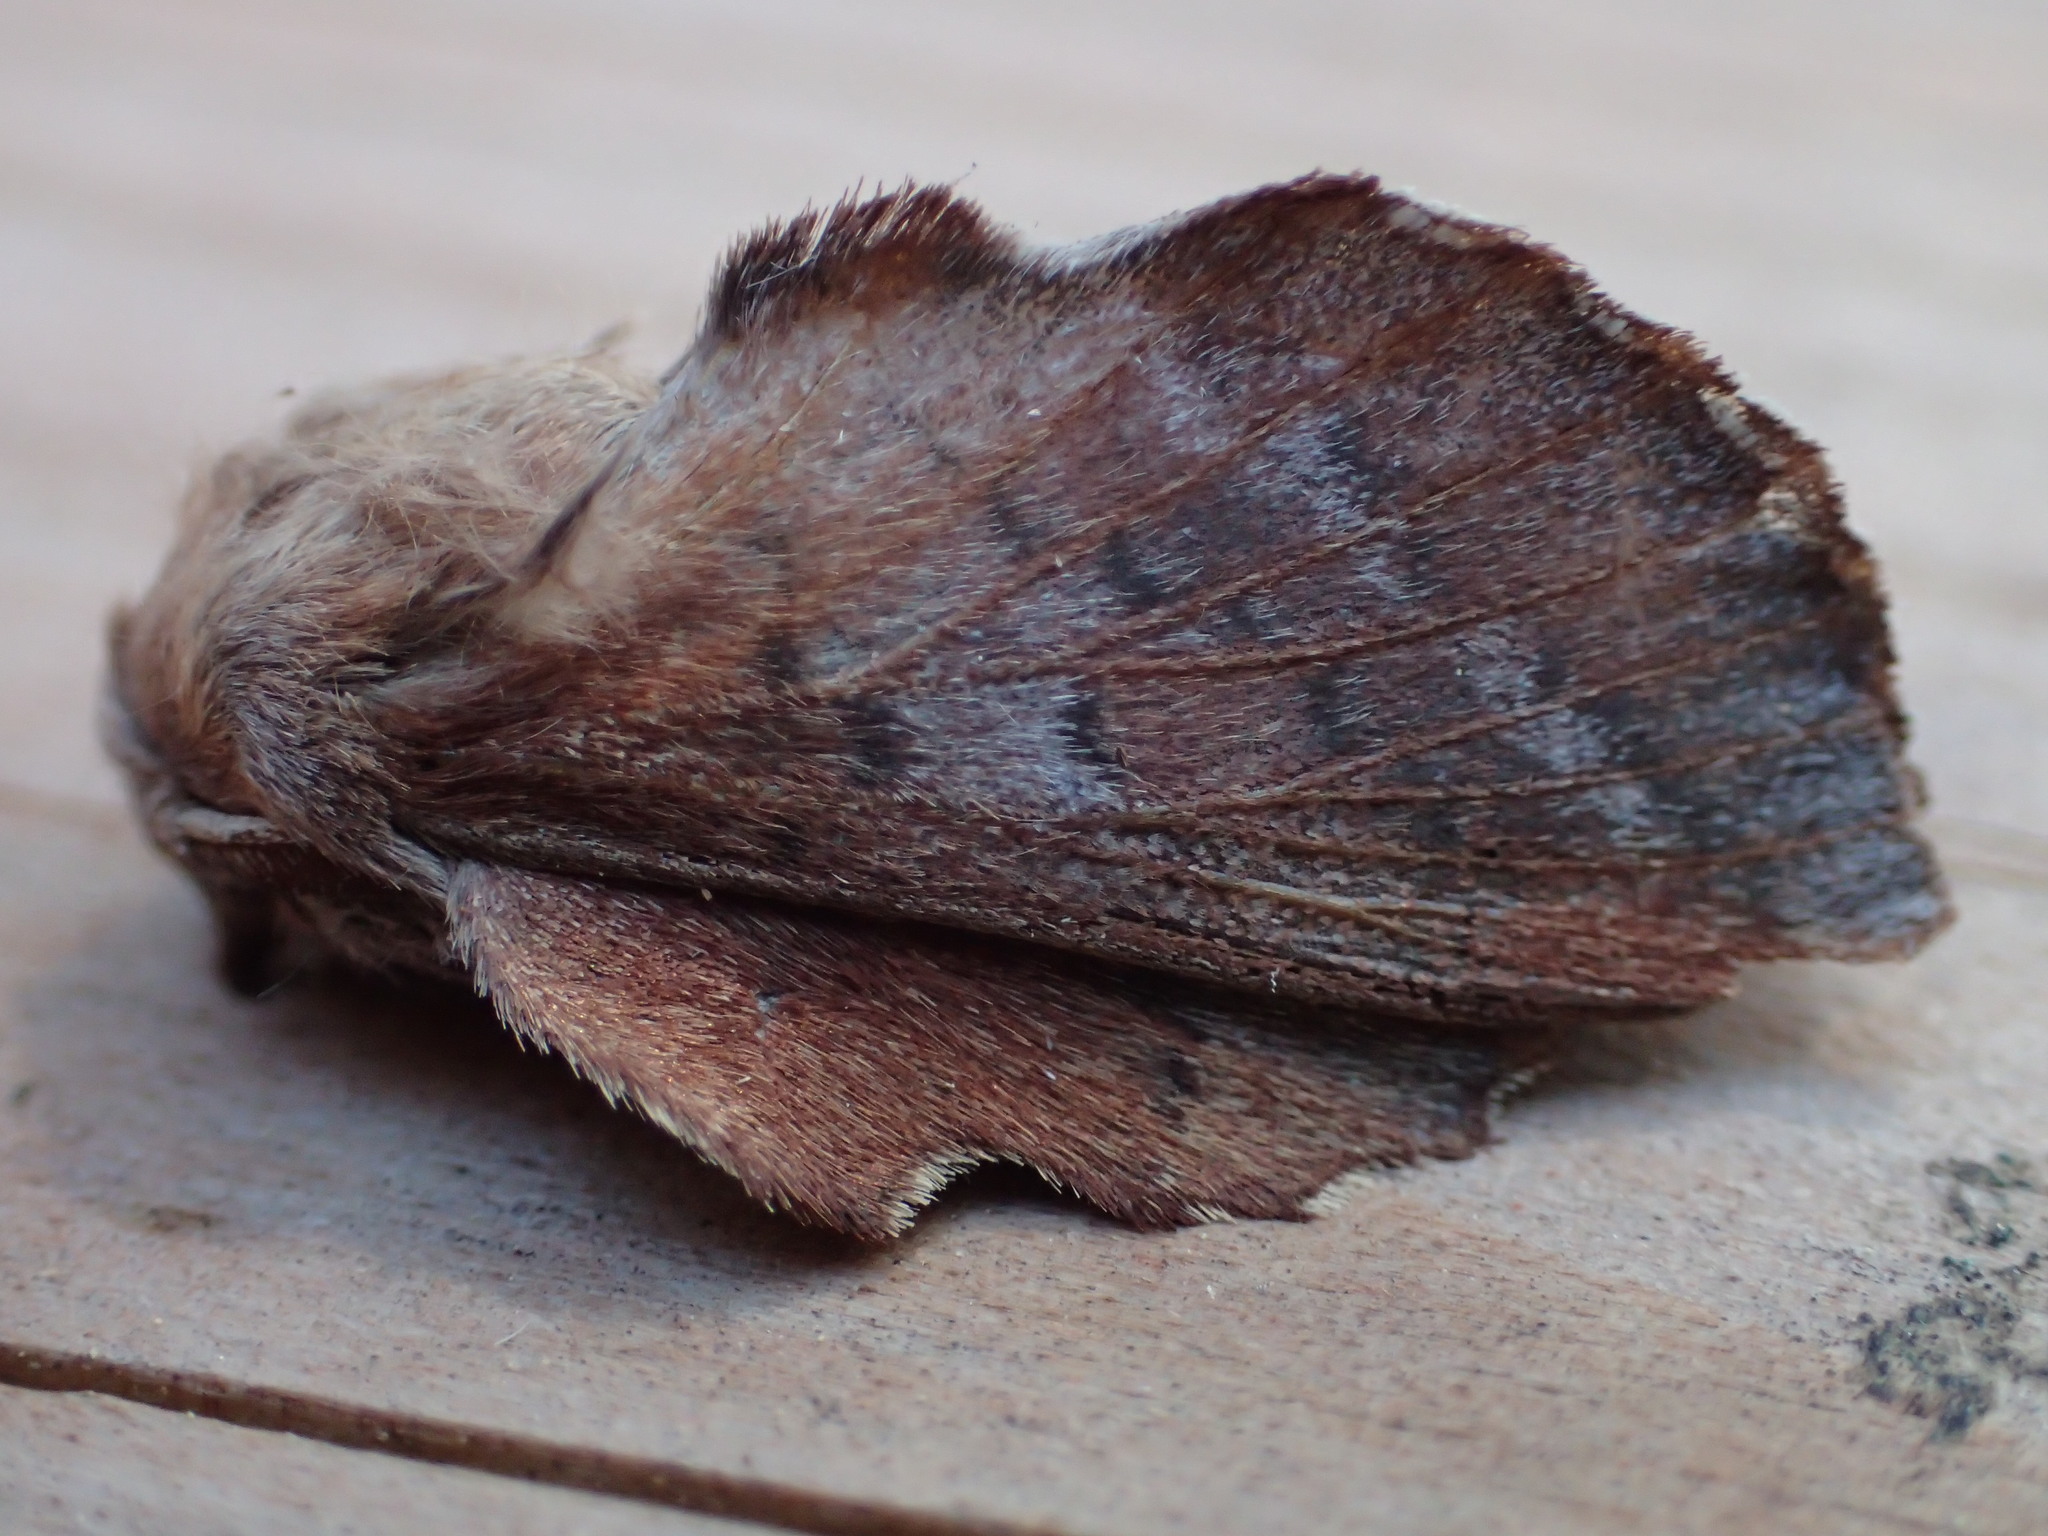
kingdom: Animalia
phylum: Arthropoda
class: Insecta
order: Lepidoptera
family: Lasiocampidae
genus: Phyllodesma
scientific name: Phyllodesma americana
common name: American lappet moth
